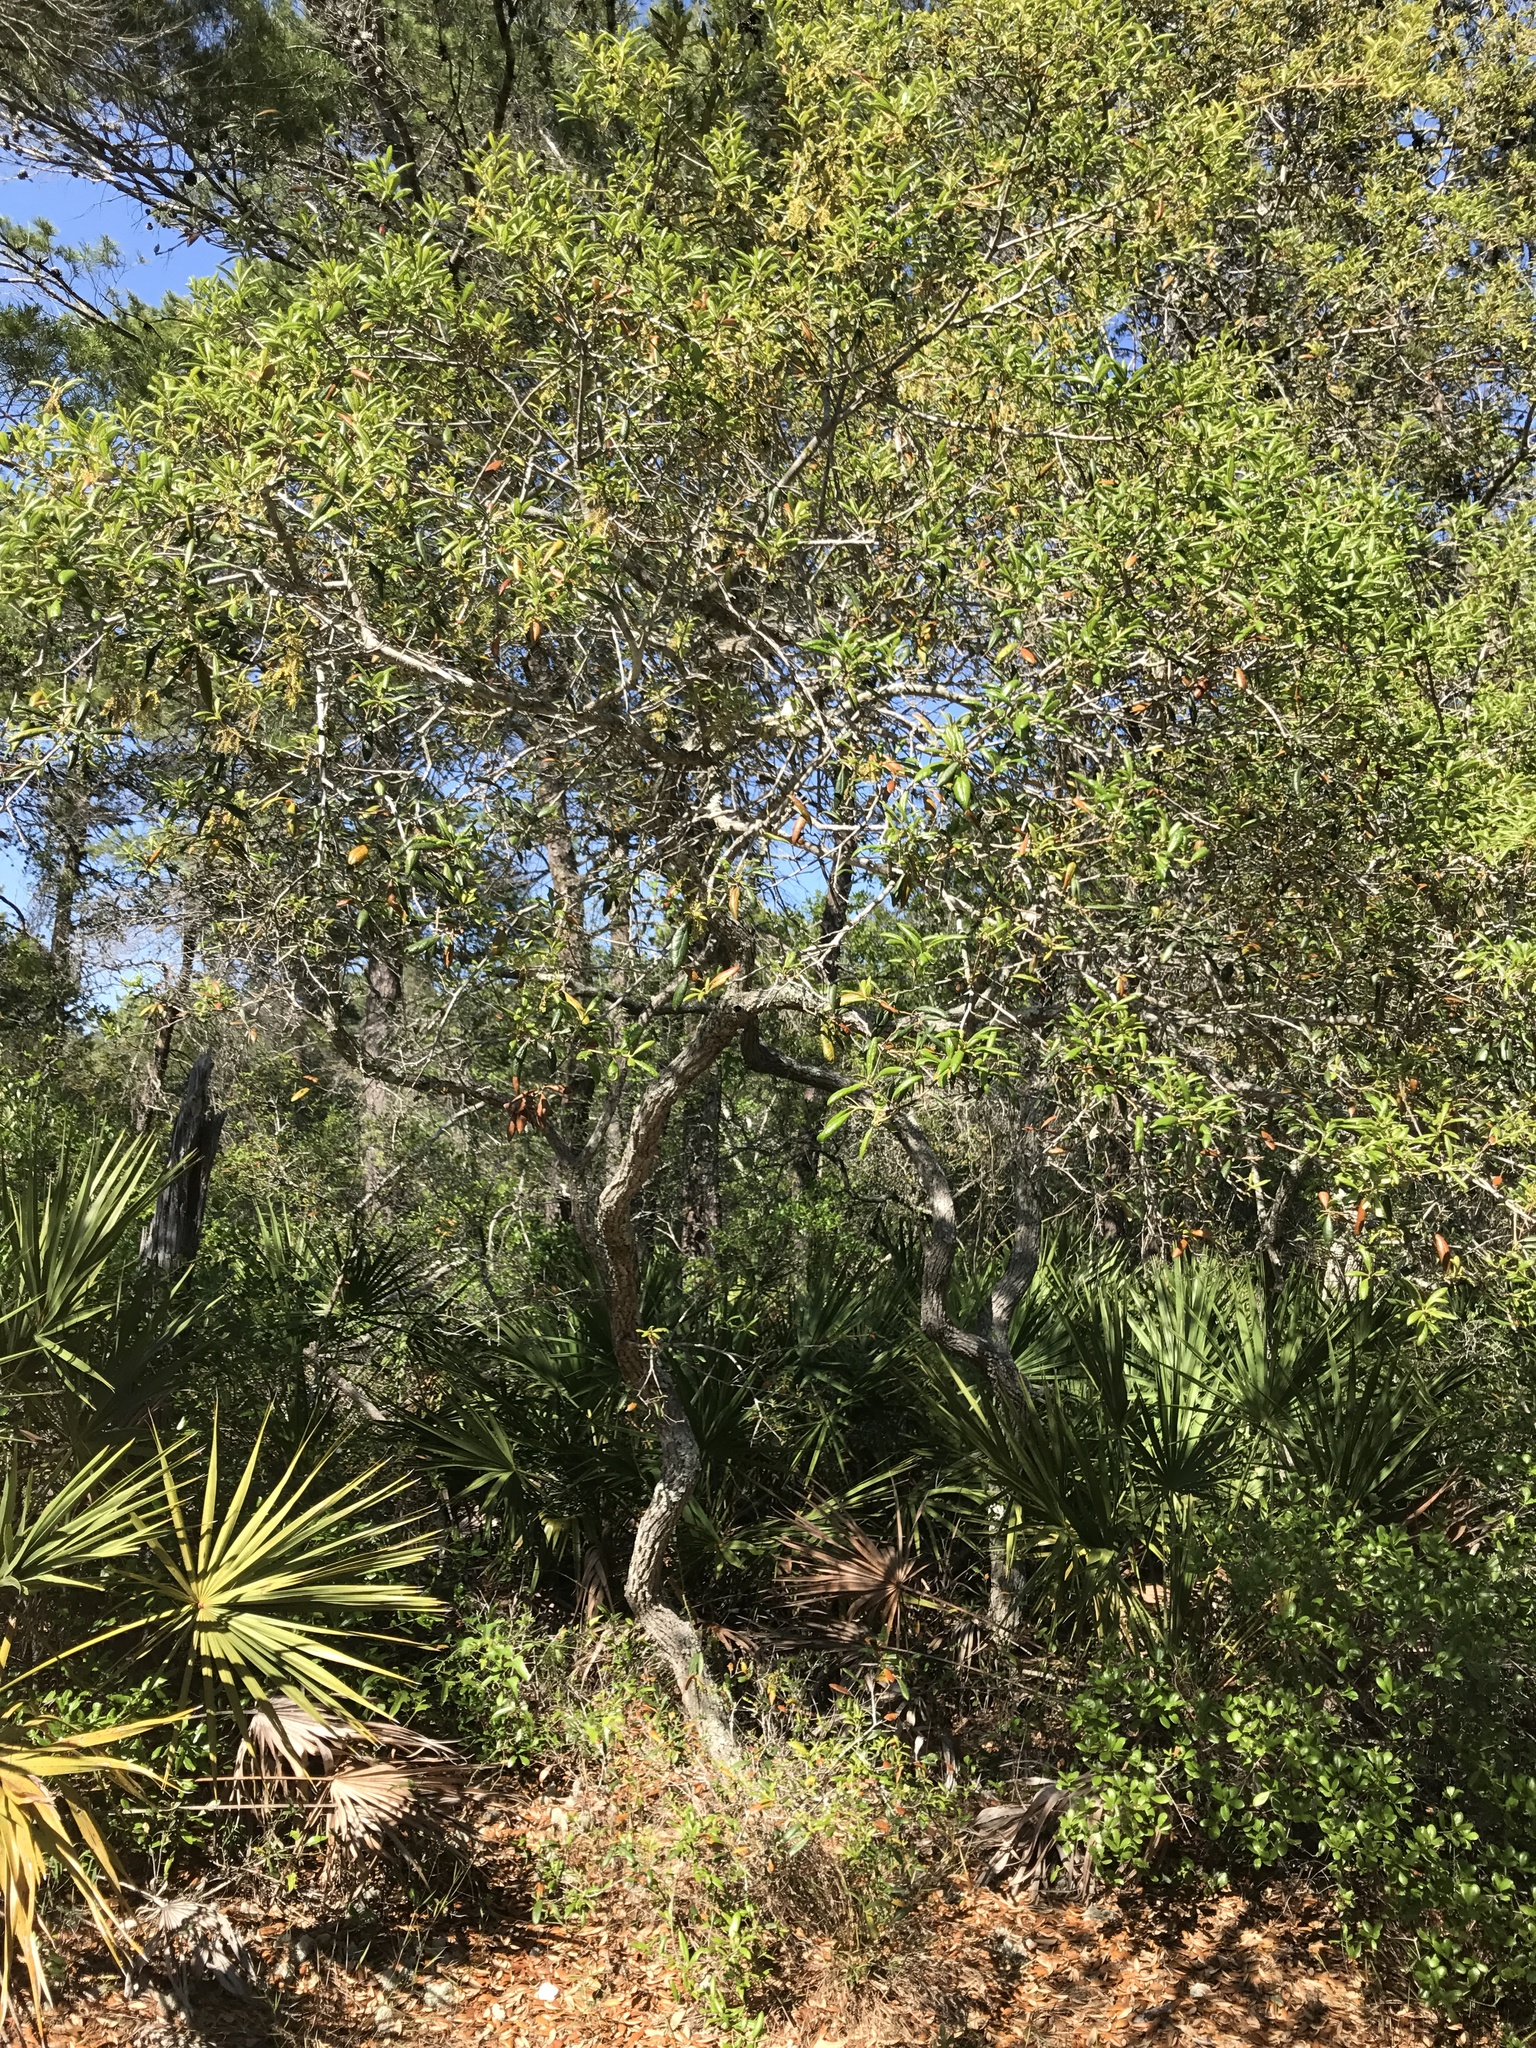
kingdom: Plantae
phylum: Tracheophyta
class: Magnoliopsida
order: Fagales
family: Fagaceae
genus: Quercus
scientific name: Quercus geminata
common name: Sand live oak
